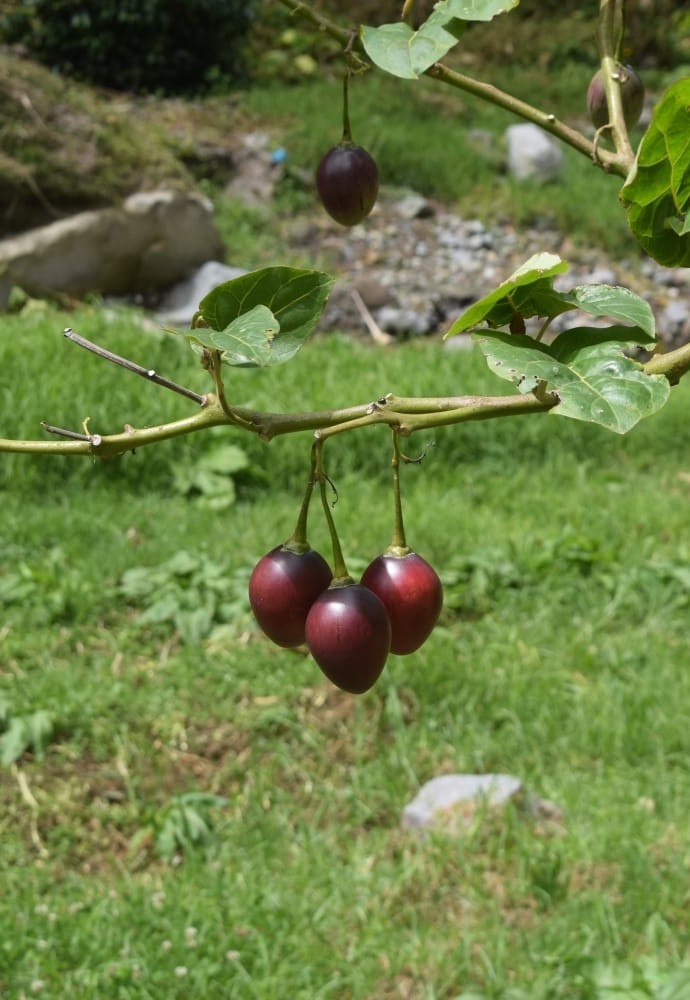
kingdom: Plantae
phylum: Tracheophyta
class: Magnoliopsida
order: Solanales
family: Solanaceae
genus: Solanum
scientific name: Solanum betaceum
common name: Tamarillo
